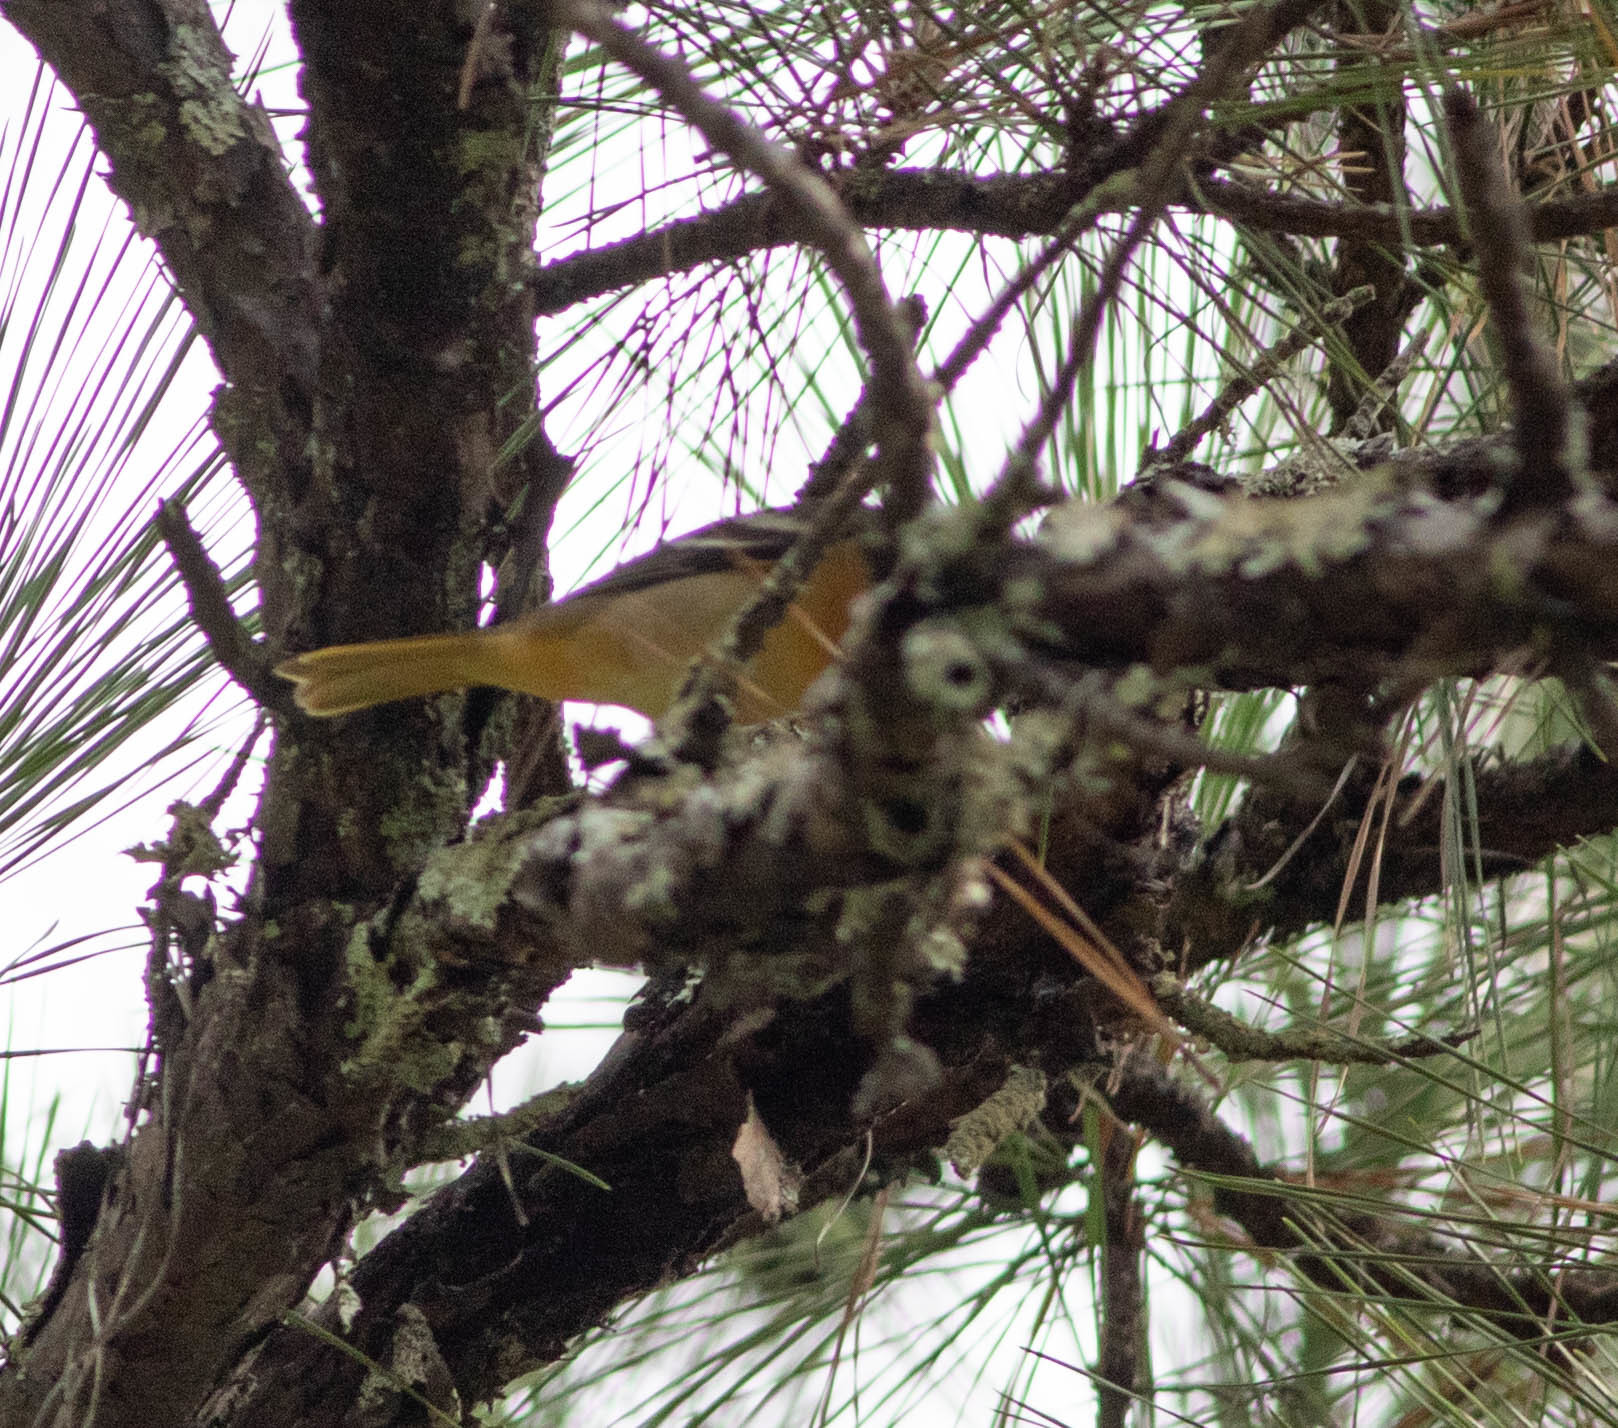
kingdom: Animalia
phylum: Chordata
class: Aves
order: Passeriformes
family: Icteridae
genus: Icterus
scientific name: Icterus galbula
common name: Baltimore oriole
